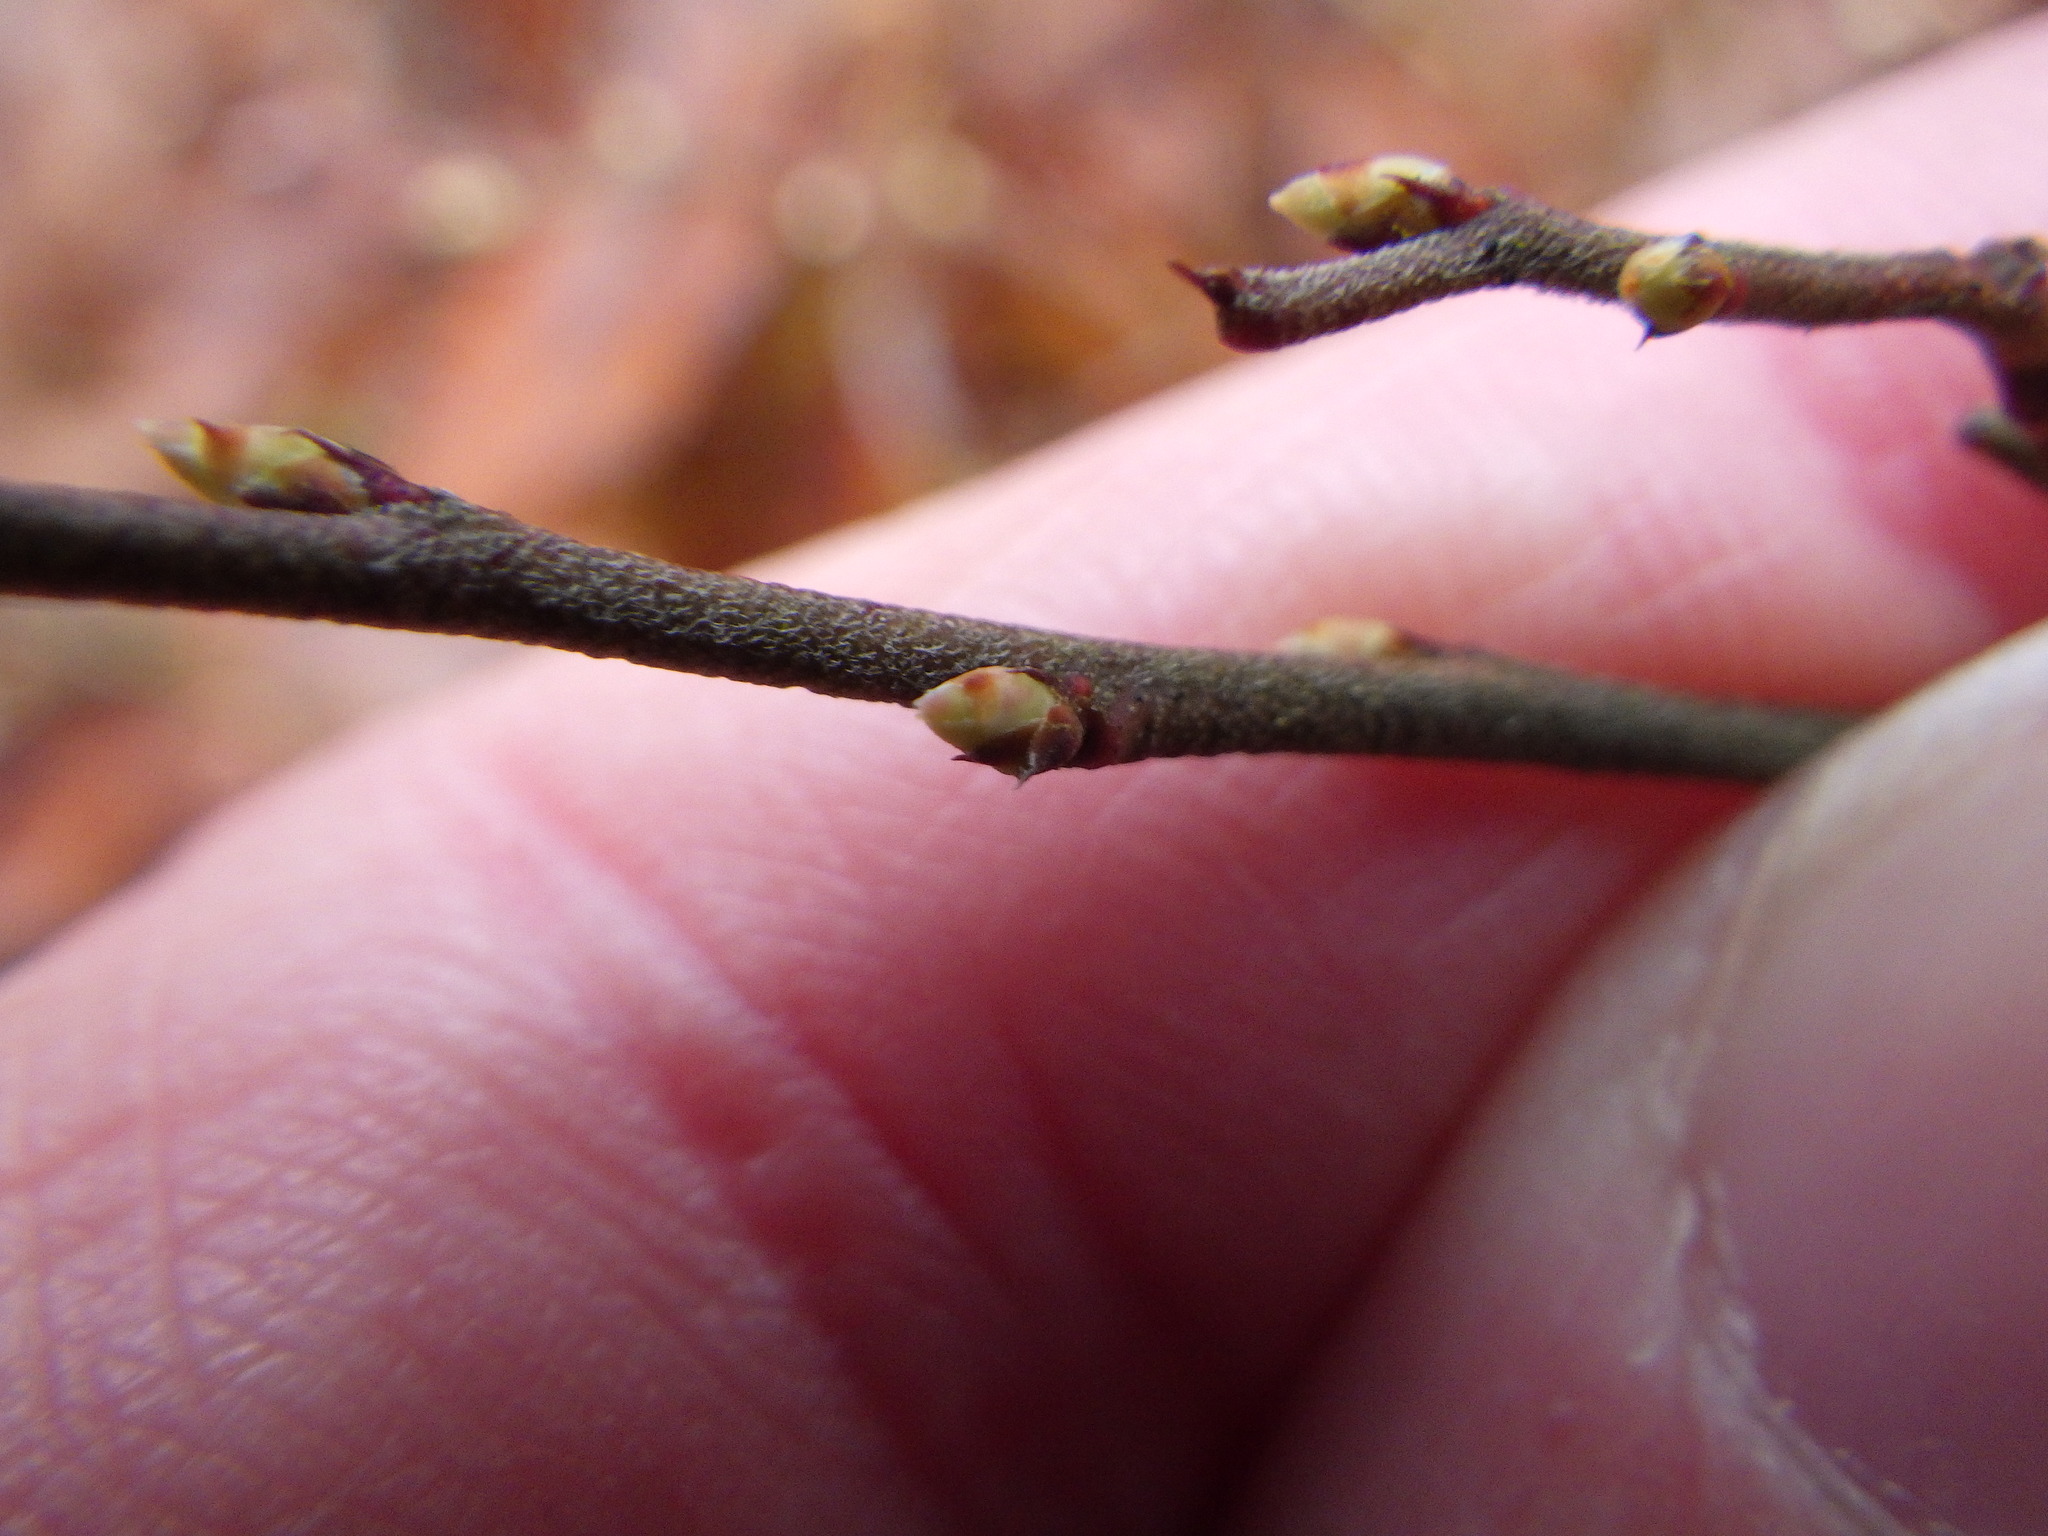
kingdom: Plantae
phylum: Tracheophyta
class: Magnoliopsida
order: Ericales
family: Ericaceae
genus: Vaccinium
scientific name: Vaccinium angustifolium
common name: Early lowbush blueberry
